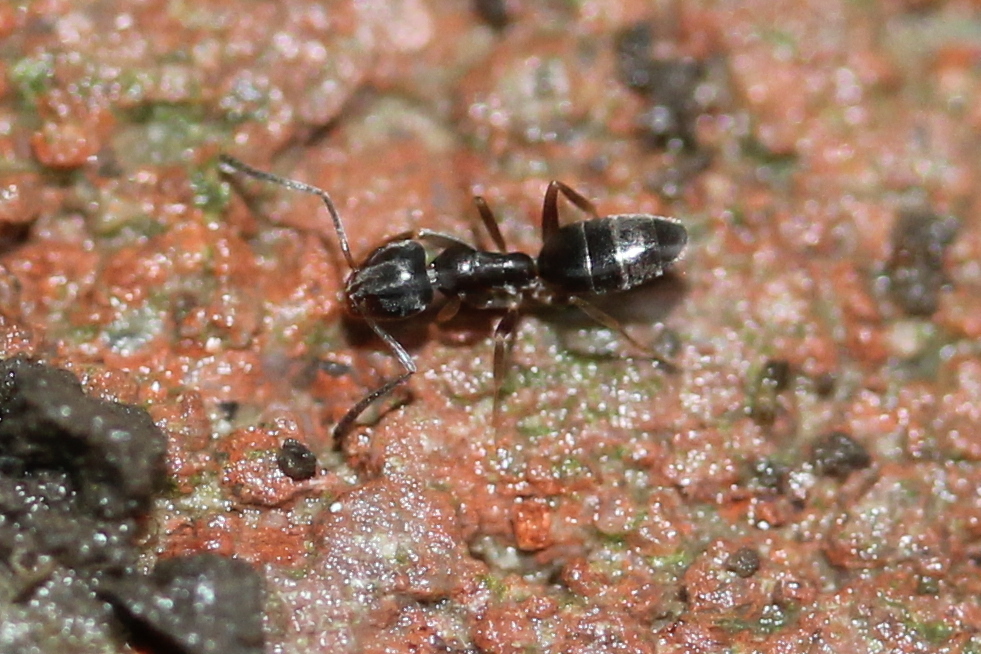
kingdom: Animalia
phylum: Arthropoda
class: Insecta
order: Hymenoptera
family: Formicidae
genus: Tapinoma
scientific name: Tapinoma sessile
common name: Odorous house ant
